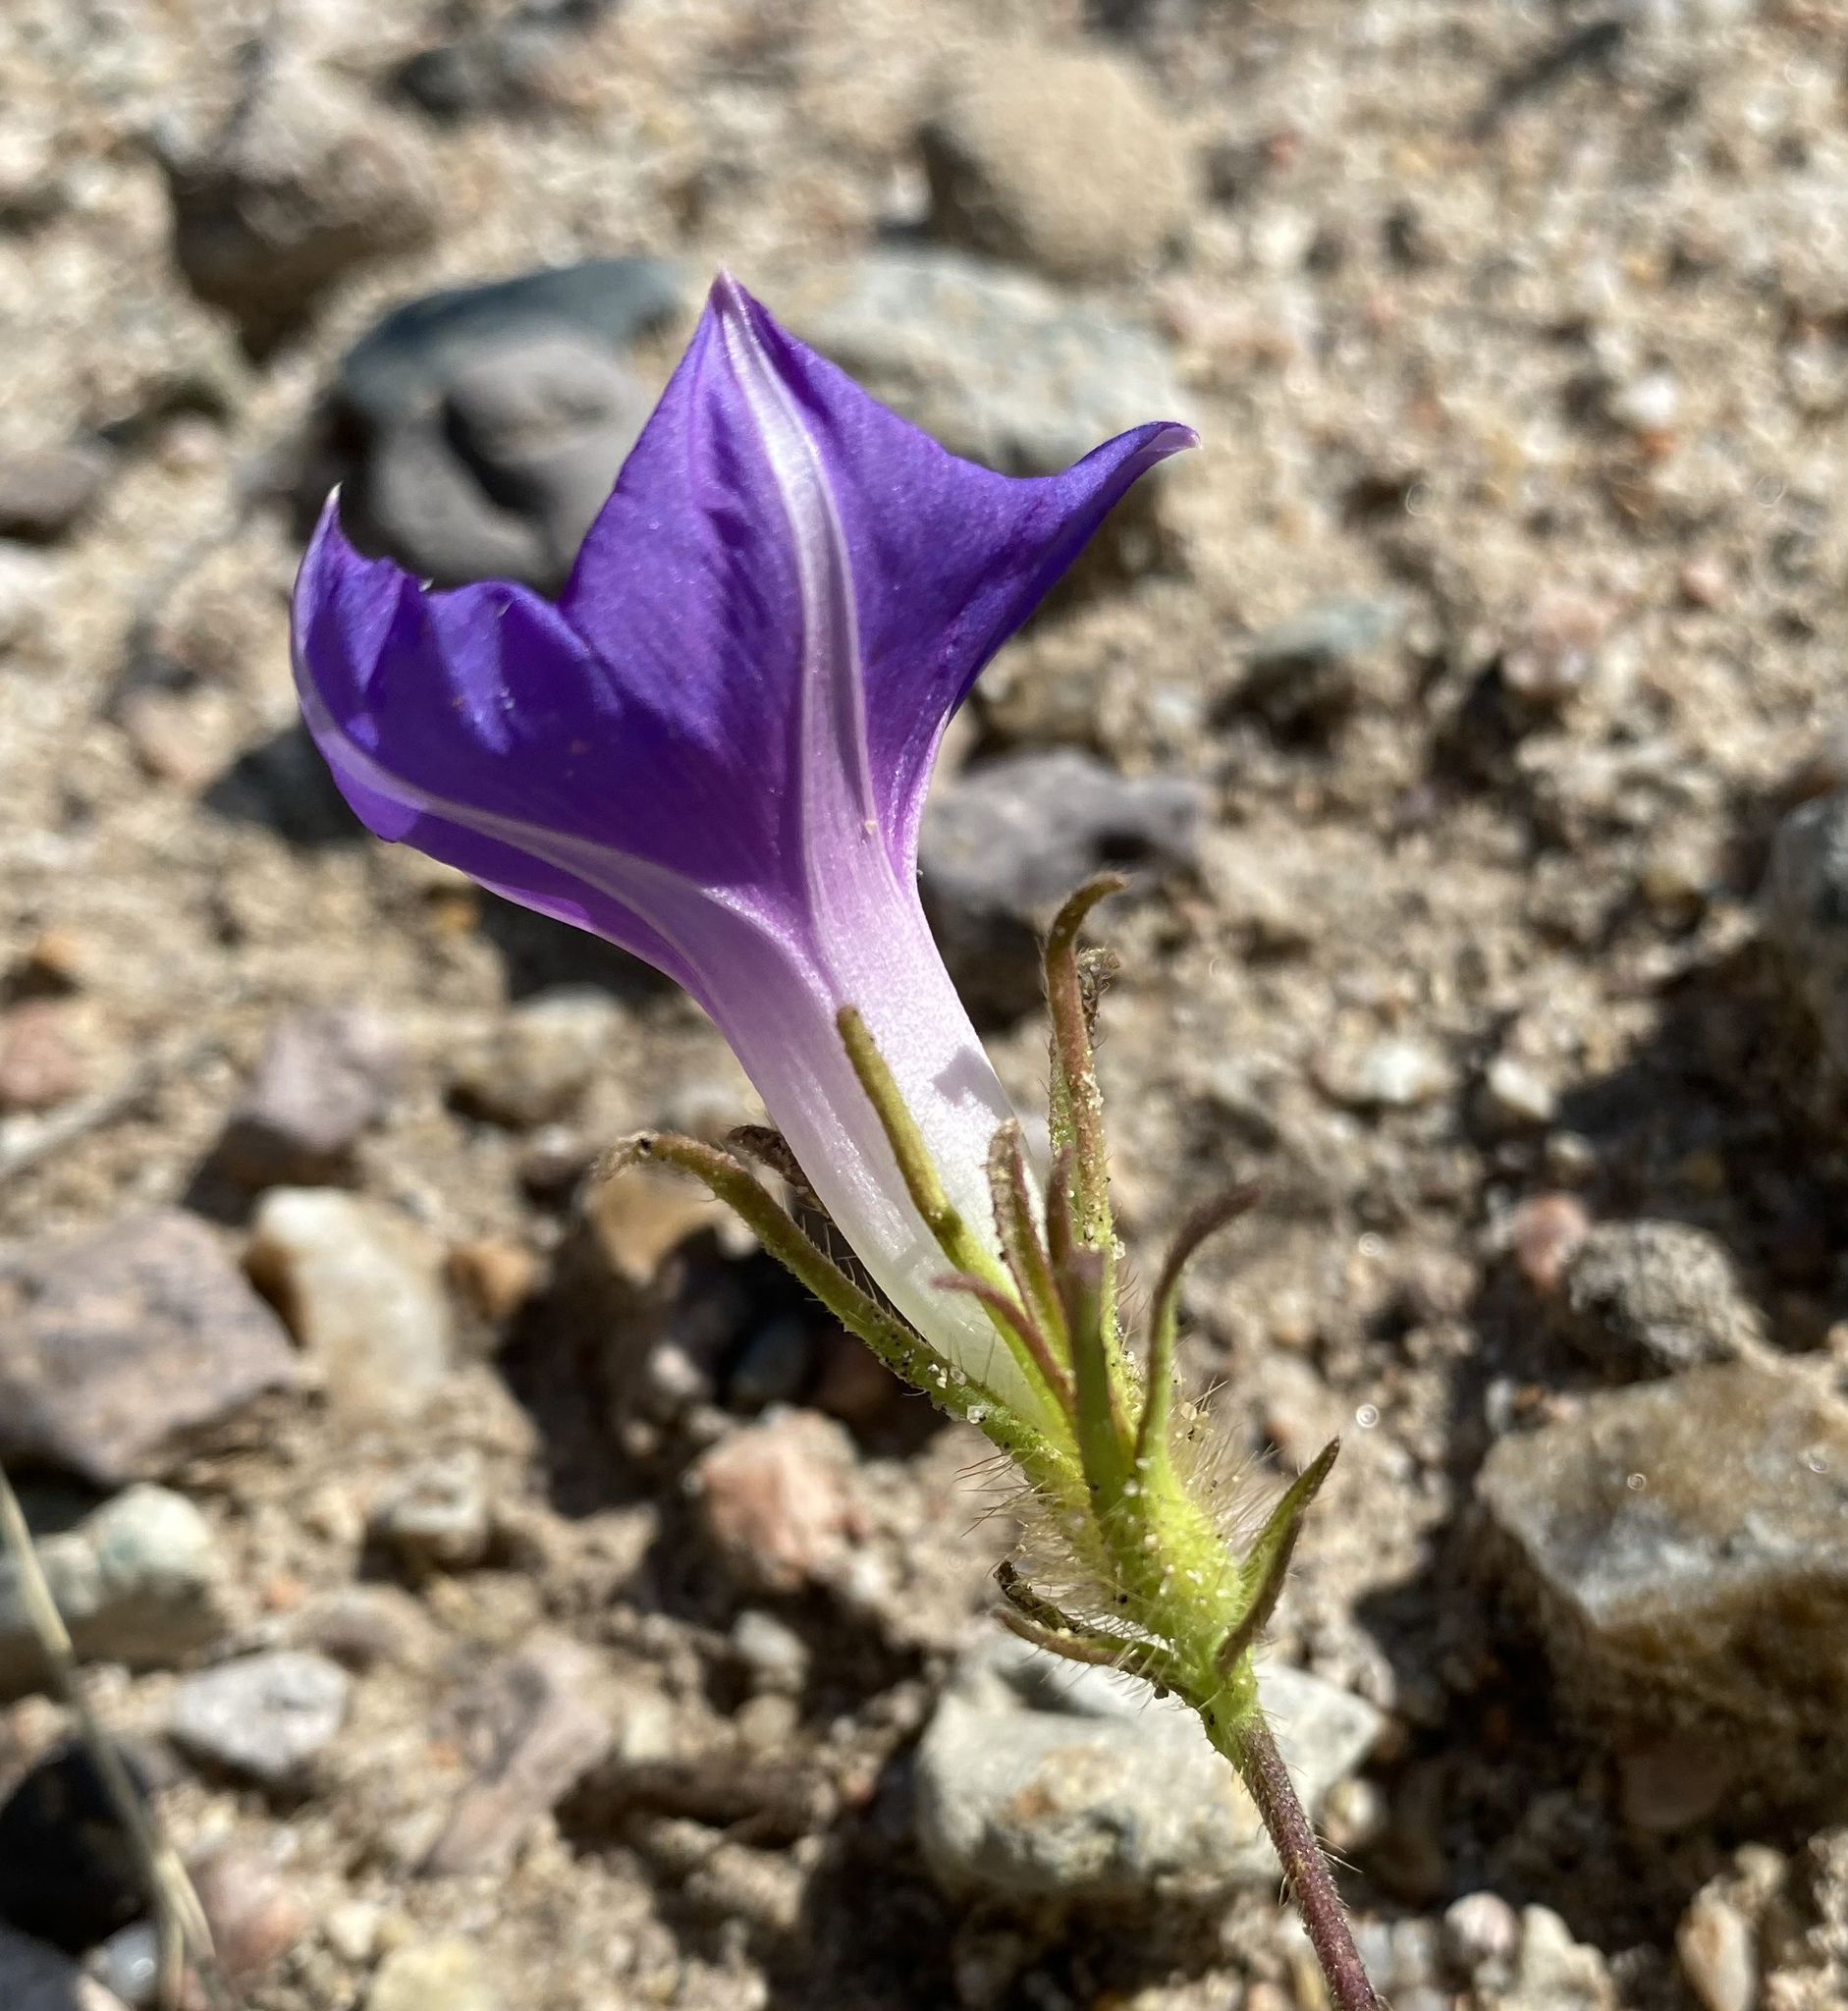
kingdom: Plantae
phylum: Tracheophyta
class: Magnoliopsida
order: Solanales
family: Convolvulaceae
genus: Ipomoea
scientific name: Ipomoea hederacea
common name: Ivy-leaved morning-glory
